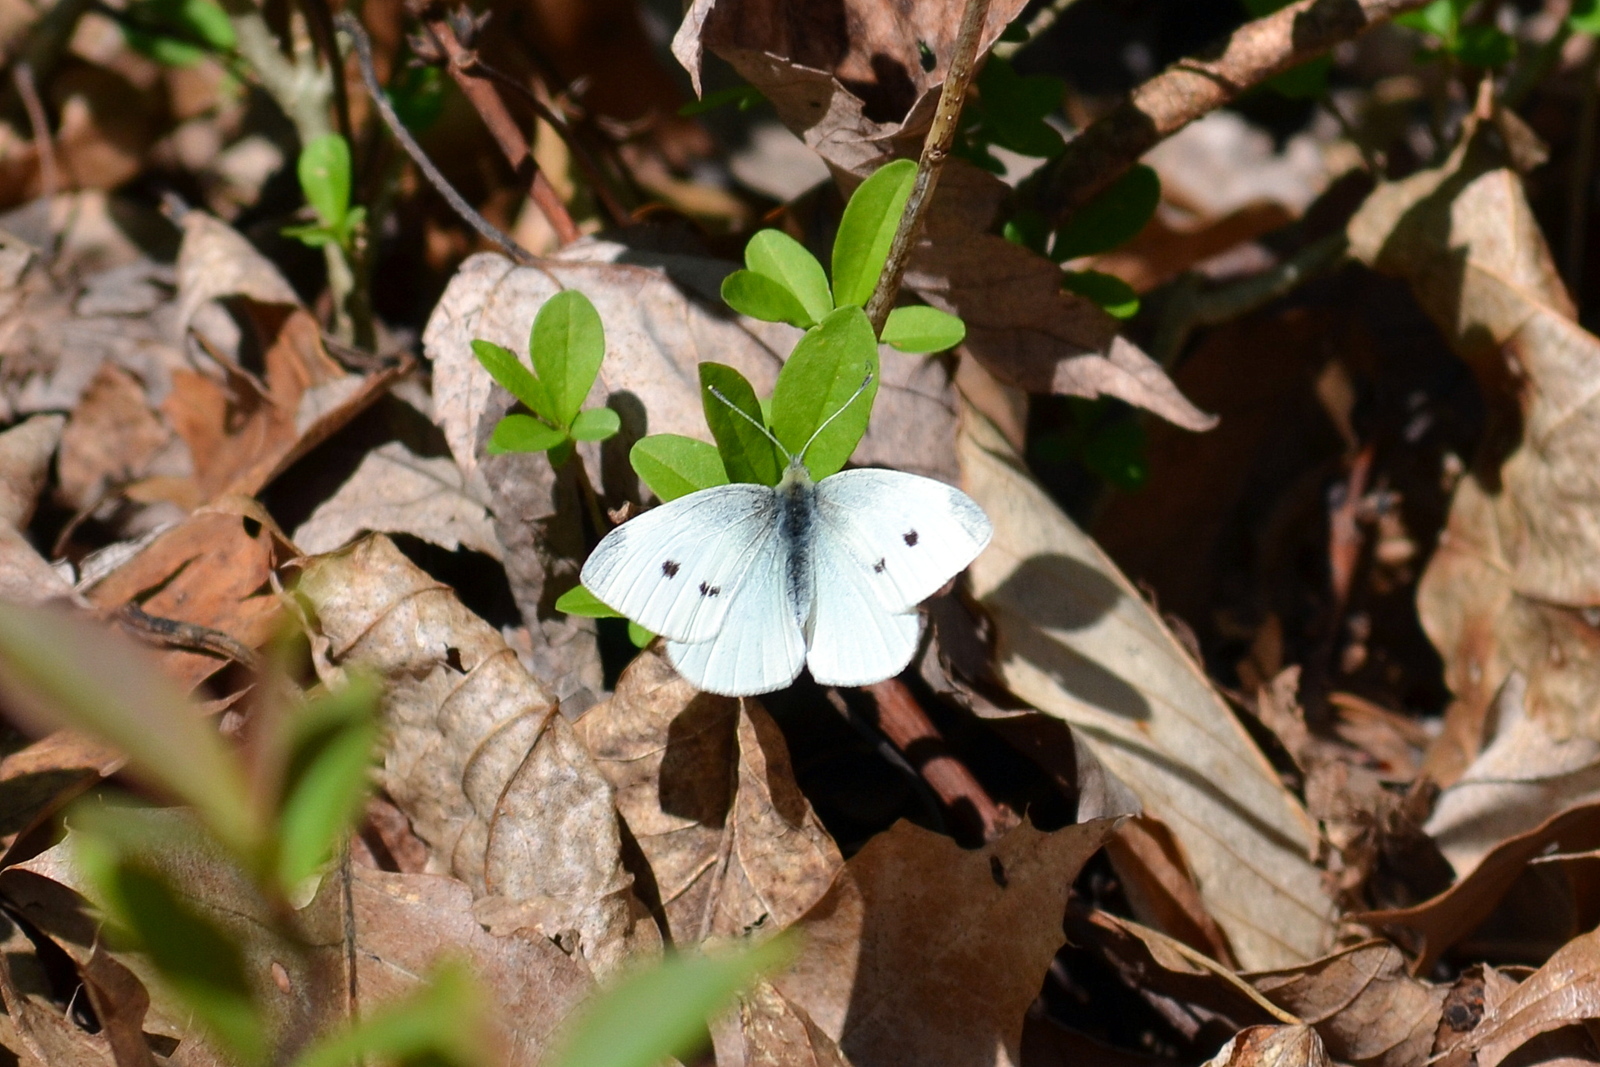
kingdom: Animalia
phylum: Arthropoda
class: Insecta
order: Lepidoptera
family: Pieridae
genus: Pieris
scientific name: Pieris rapae
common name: Small white
